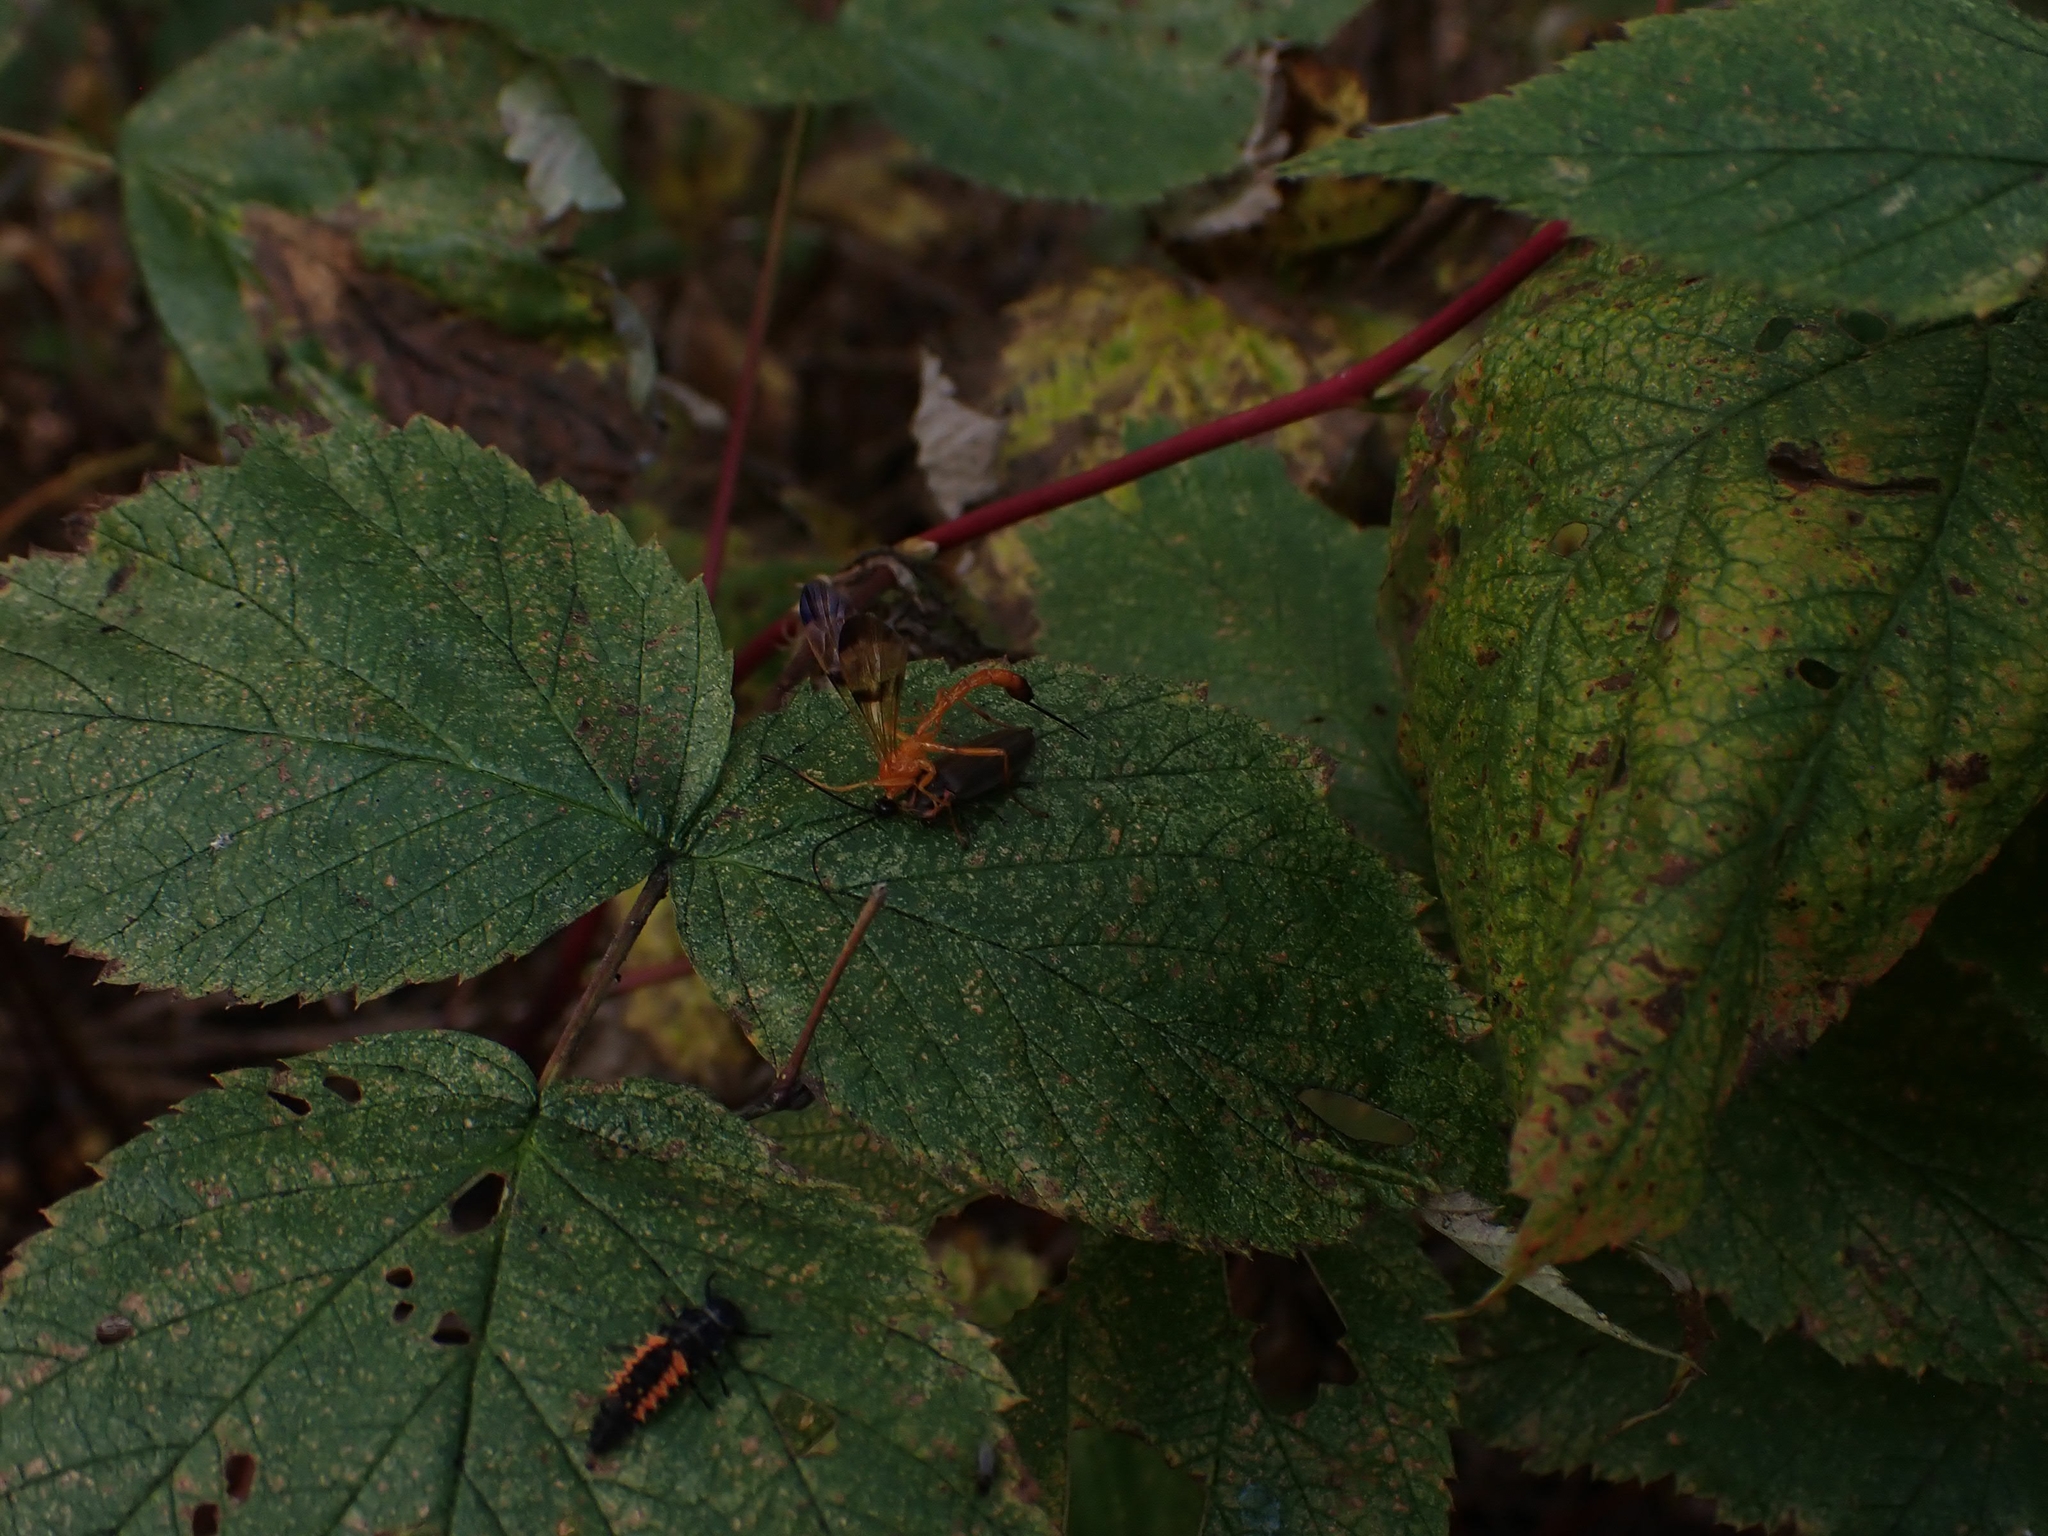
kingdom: Animalia
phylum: Arthropoda
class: Insecta
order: Hymenoptera
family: Ichneumonidae
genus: Acrotaphus
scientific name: Acrotaphus wiltii
